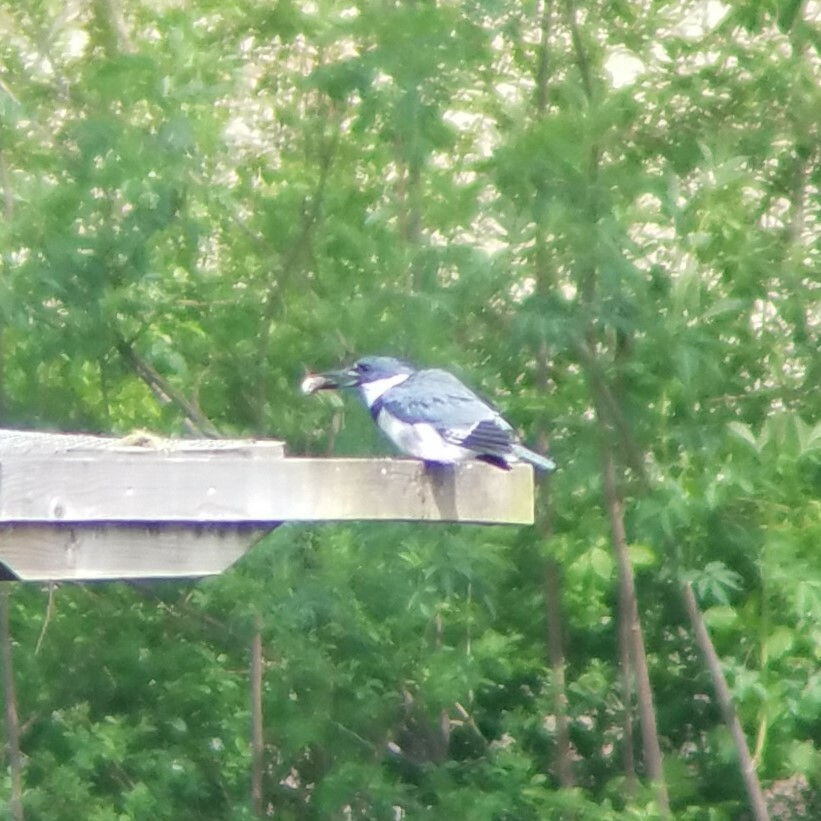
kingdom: Animalia
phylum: Chordata
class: Aves
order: Coraciiformes
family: Alcedinidae
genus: Megaceryle
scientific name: Megaceryle alcyon
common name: Belted kingfisher
